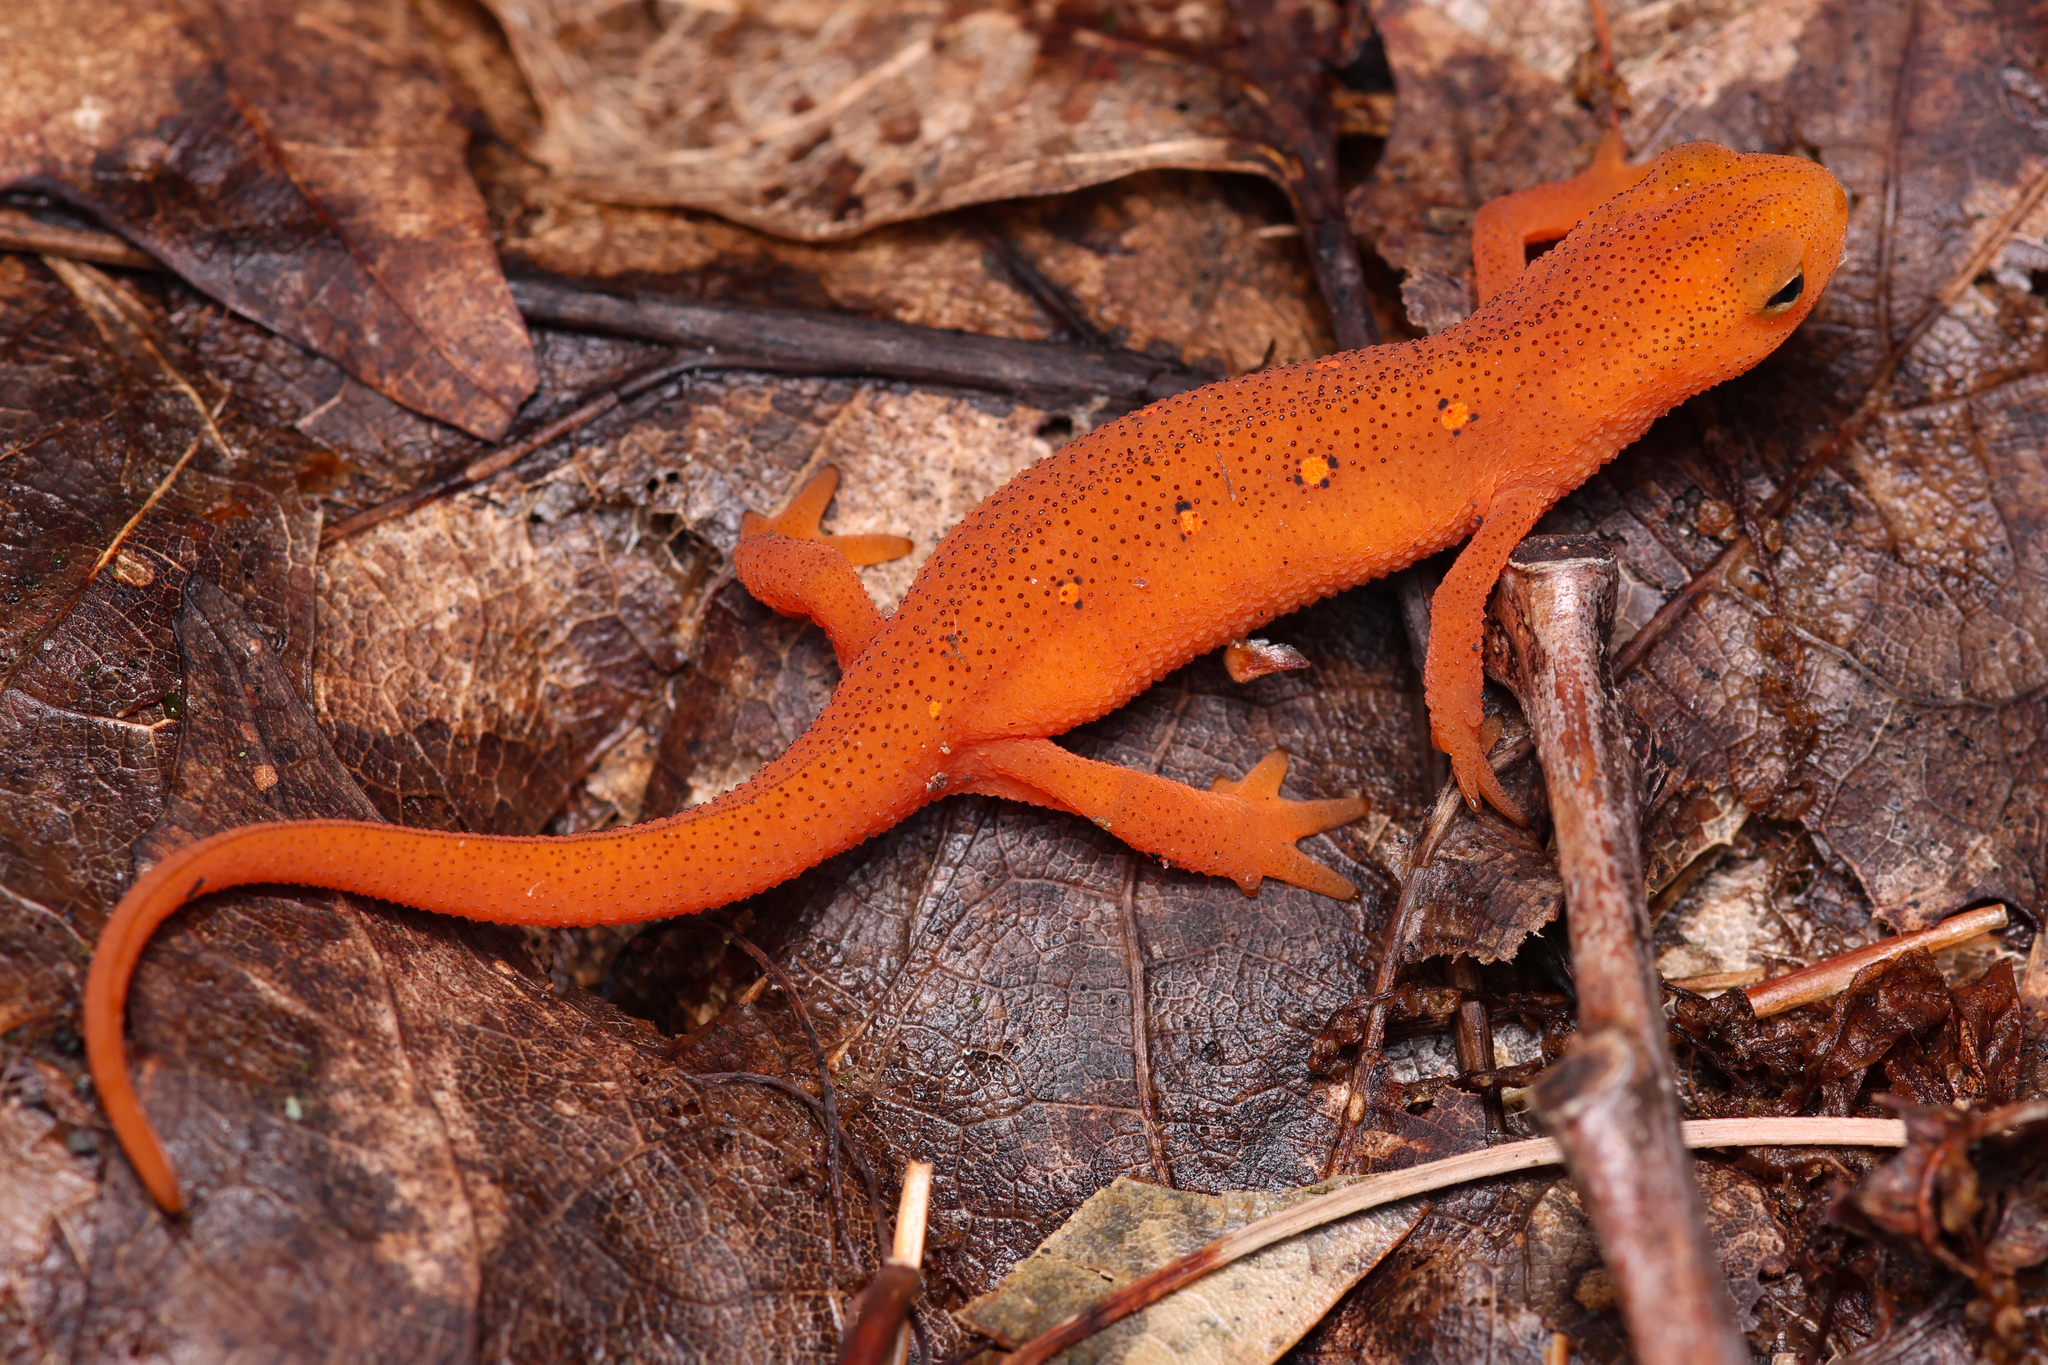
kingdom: Animalia
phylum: Chordata
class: Amphibia
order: Caudata
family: Salamandridae
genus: Notophthalmus
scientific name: Notophthalmus viridescens
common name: Eastern newt
